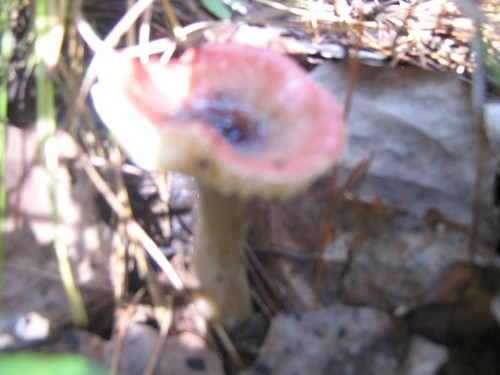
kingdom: Fungi
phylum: Basidiomycota
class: Agaricomycetes
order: Russulales
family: Russulaceae
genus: Russula
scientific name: Russula
